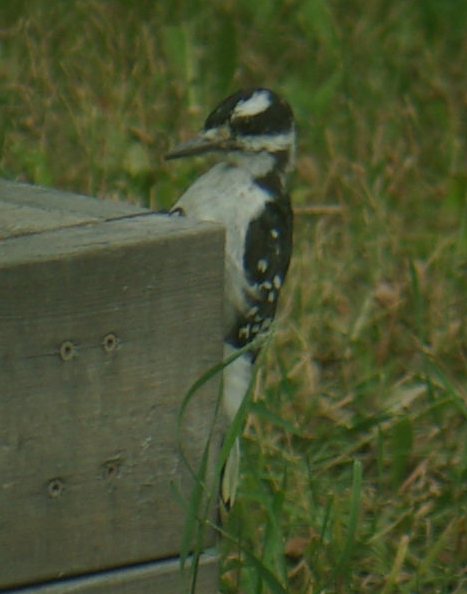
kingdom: Animalia
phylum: Chordata
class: Aves
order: Piciformes
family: Picidae
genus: Leuconotopicus
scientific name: Leuconotopicus villosus
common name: Hairy woodpecker
